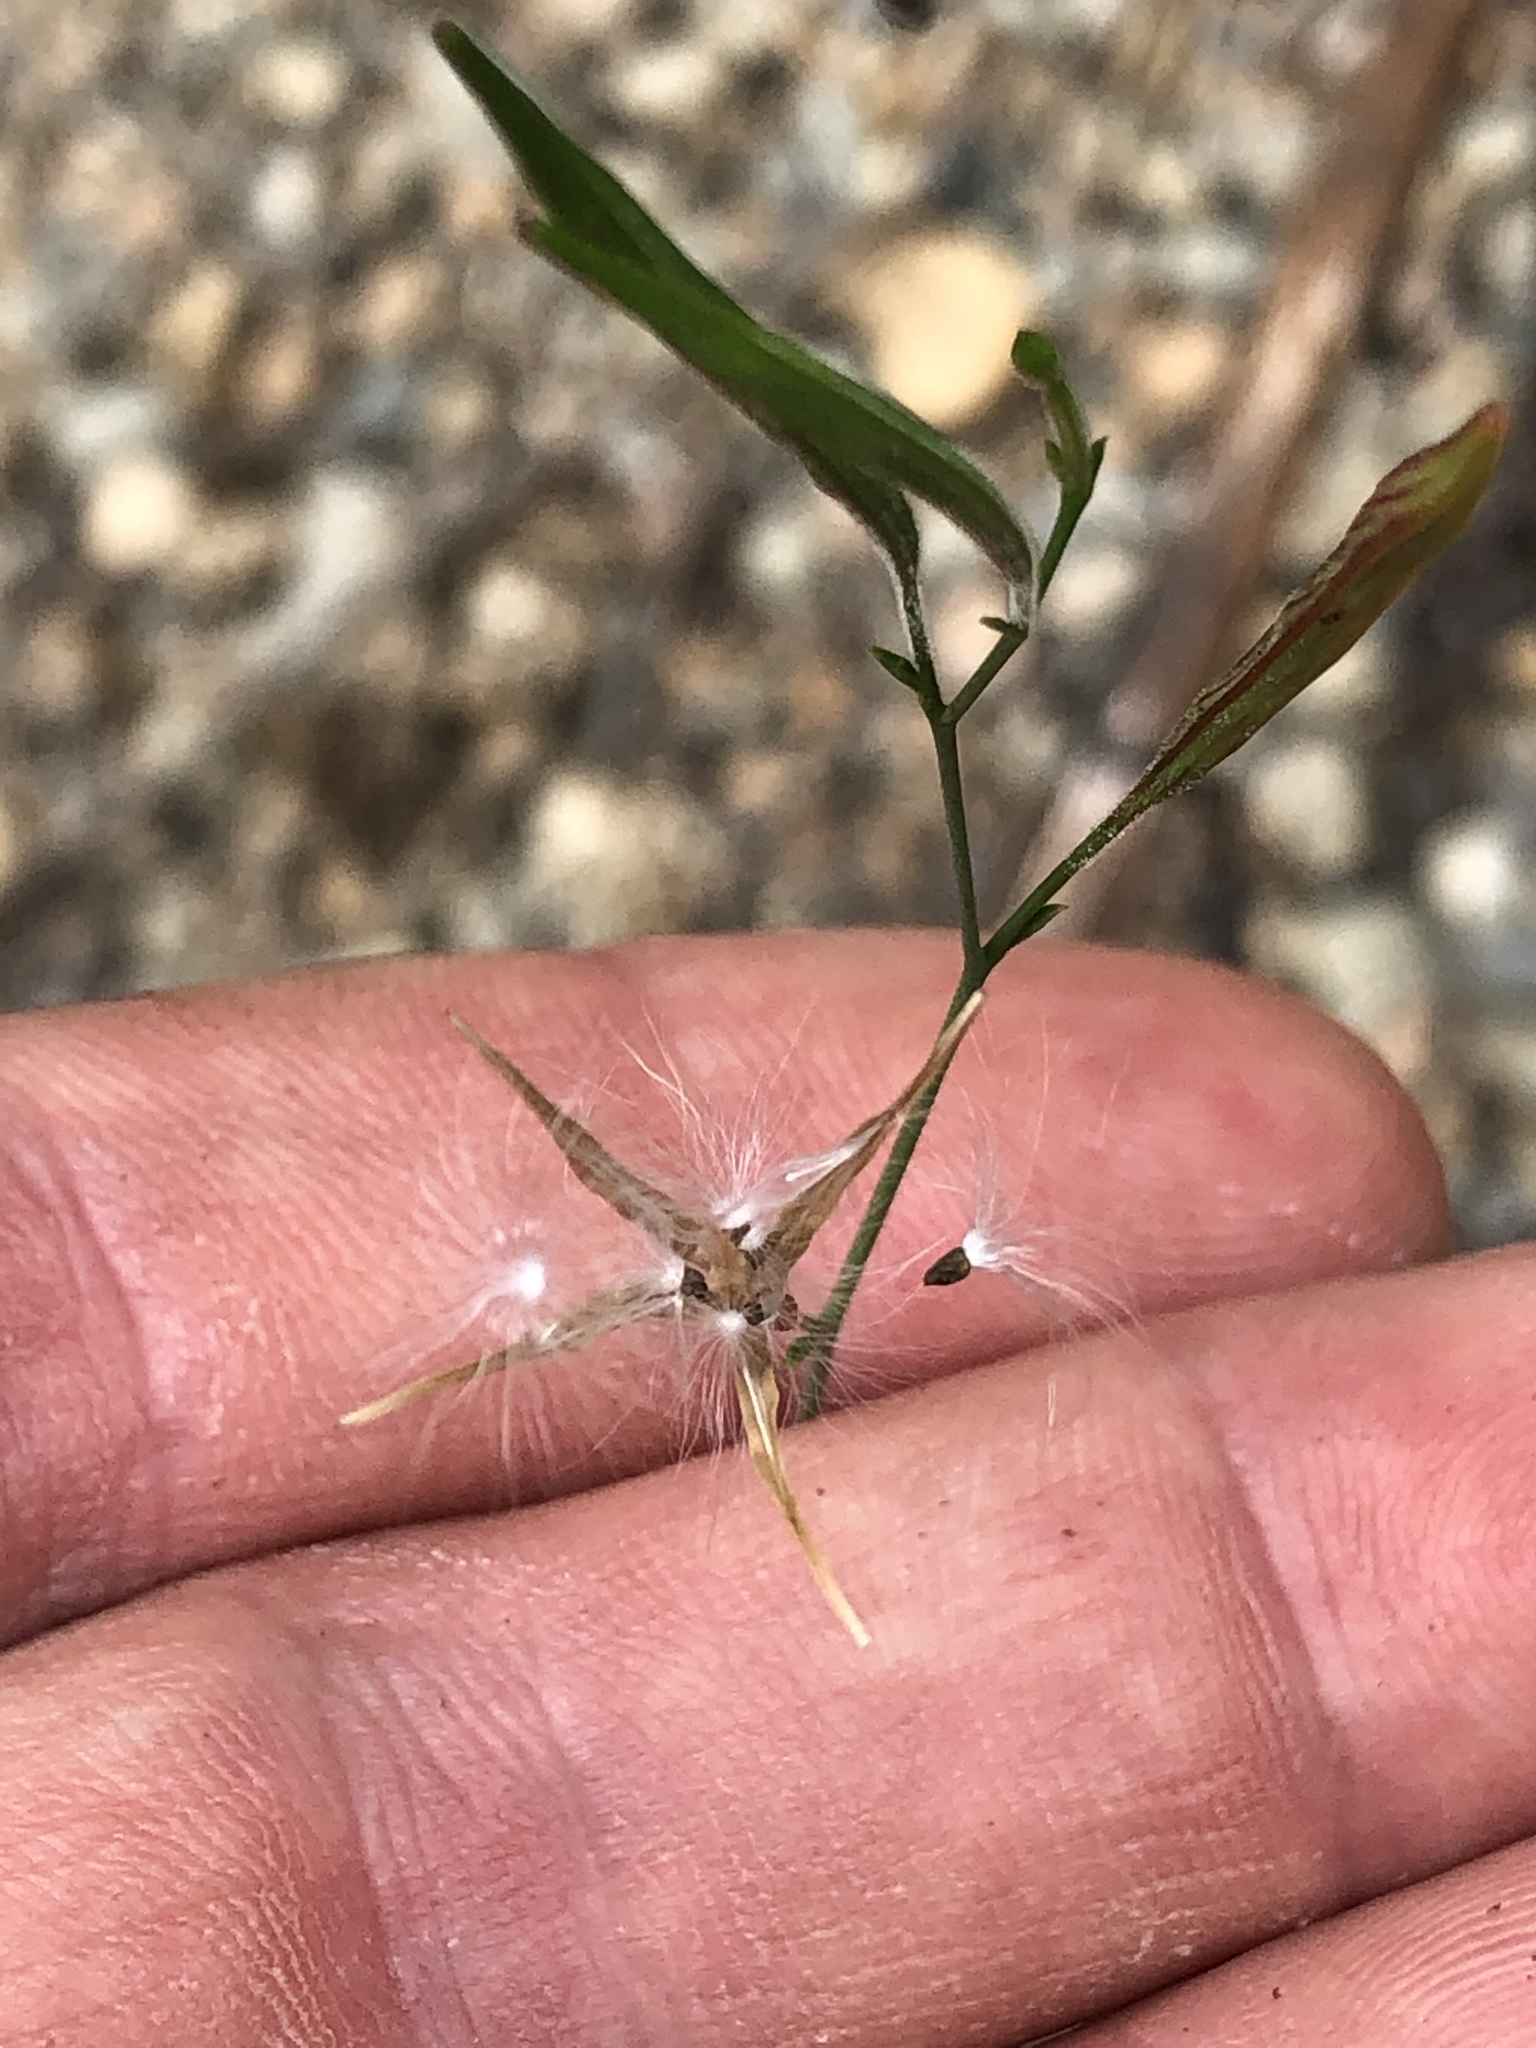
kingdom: Plantae
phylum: Tracheophyta
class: Magnoliopsida
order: Myrtales
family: Onagraceae
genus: Epilobium
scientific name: Epilobium brachycarpum
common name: Annual willowherb
